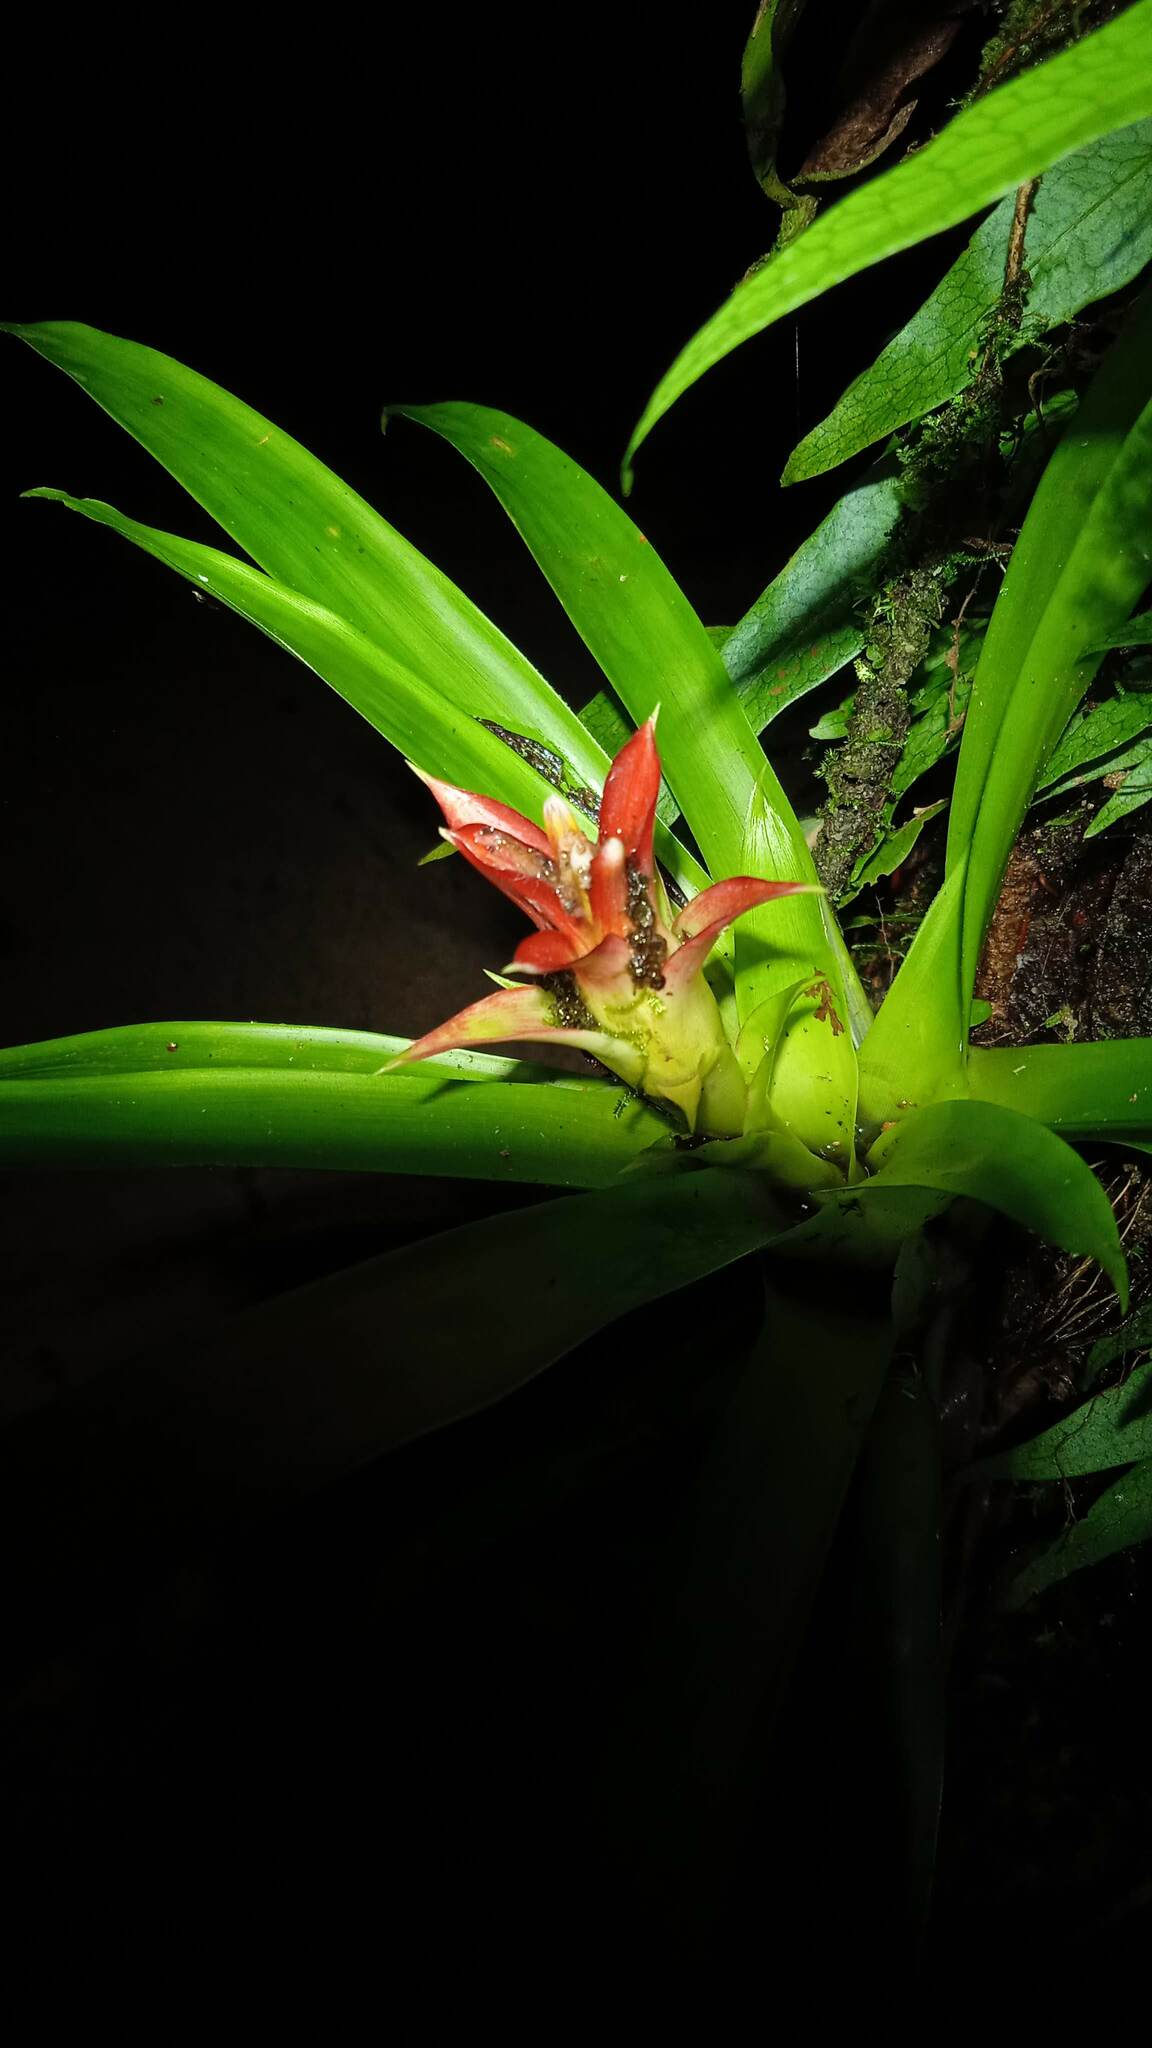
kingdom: Plantae
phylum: Tracheophyta
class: Liliopsida
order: Poales
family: Bromeliaceae
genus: Guzmania
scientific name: Guzmania lingulata
